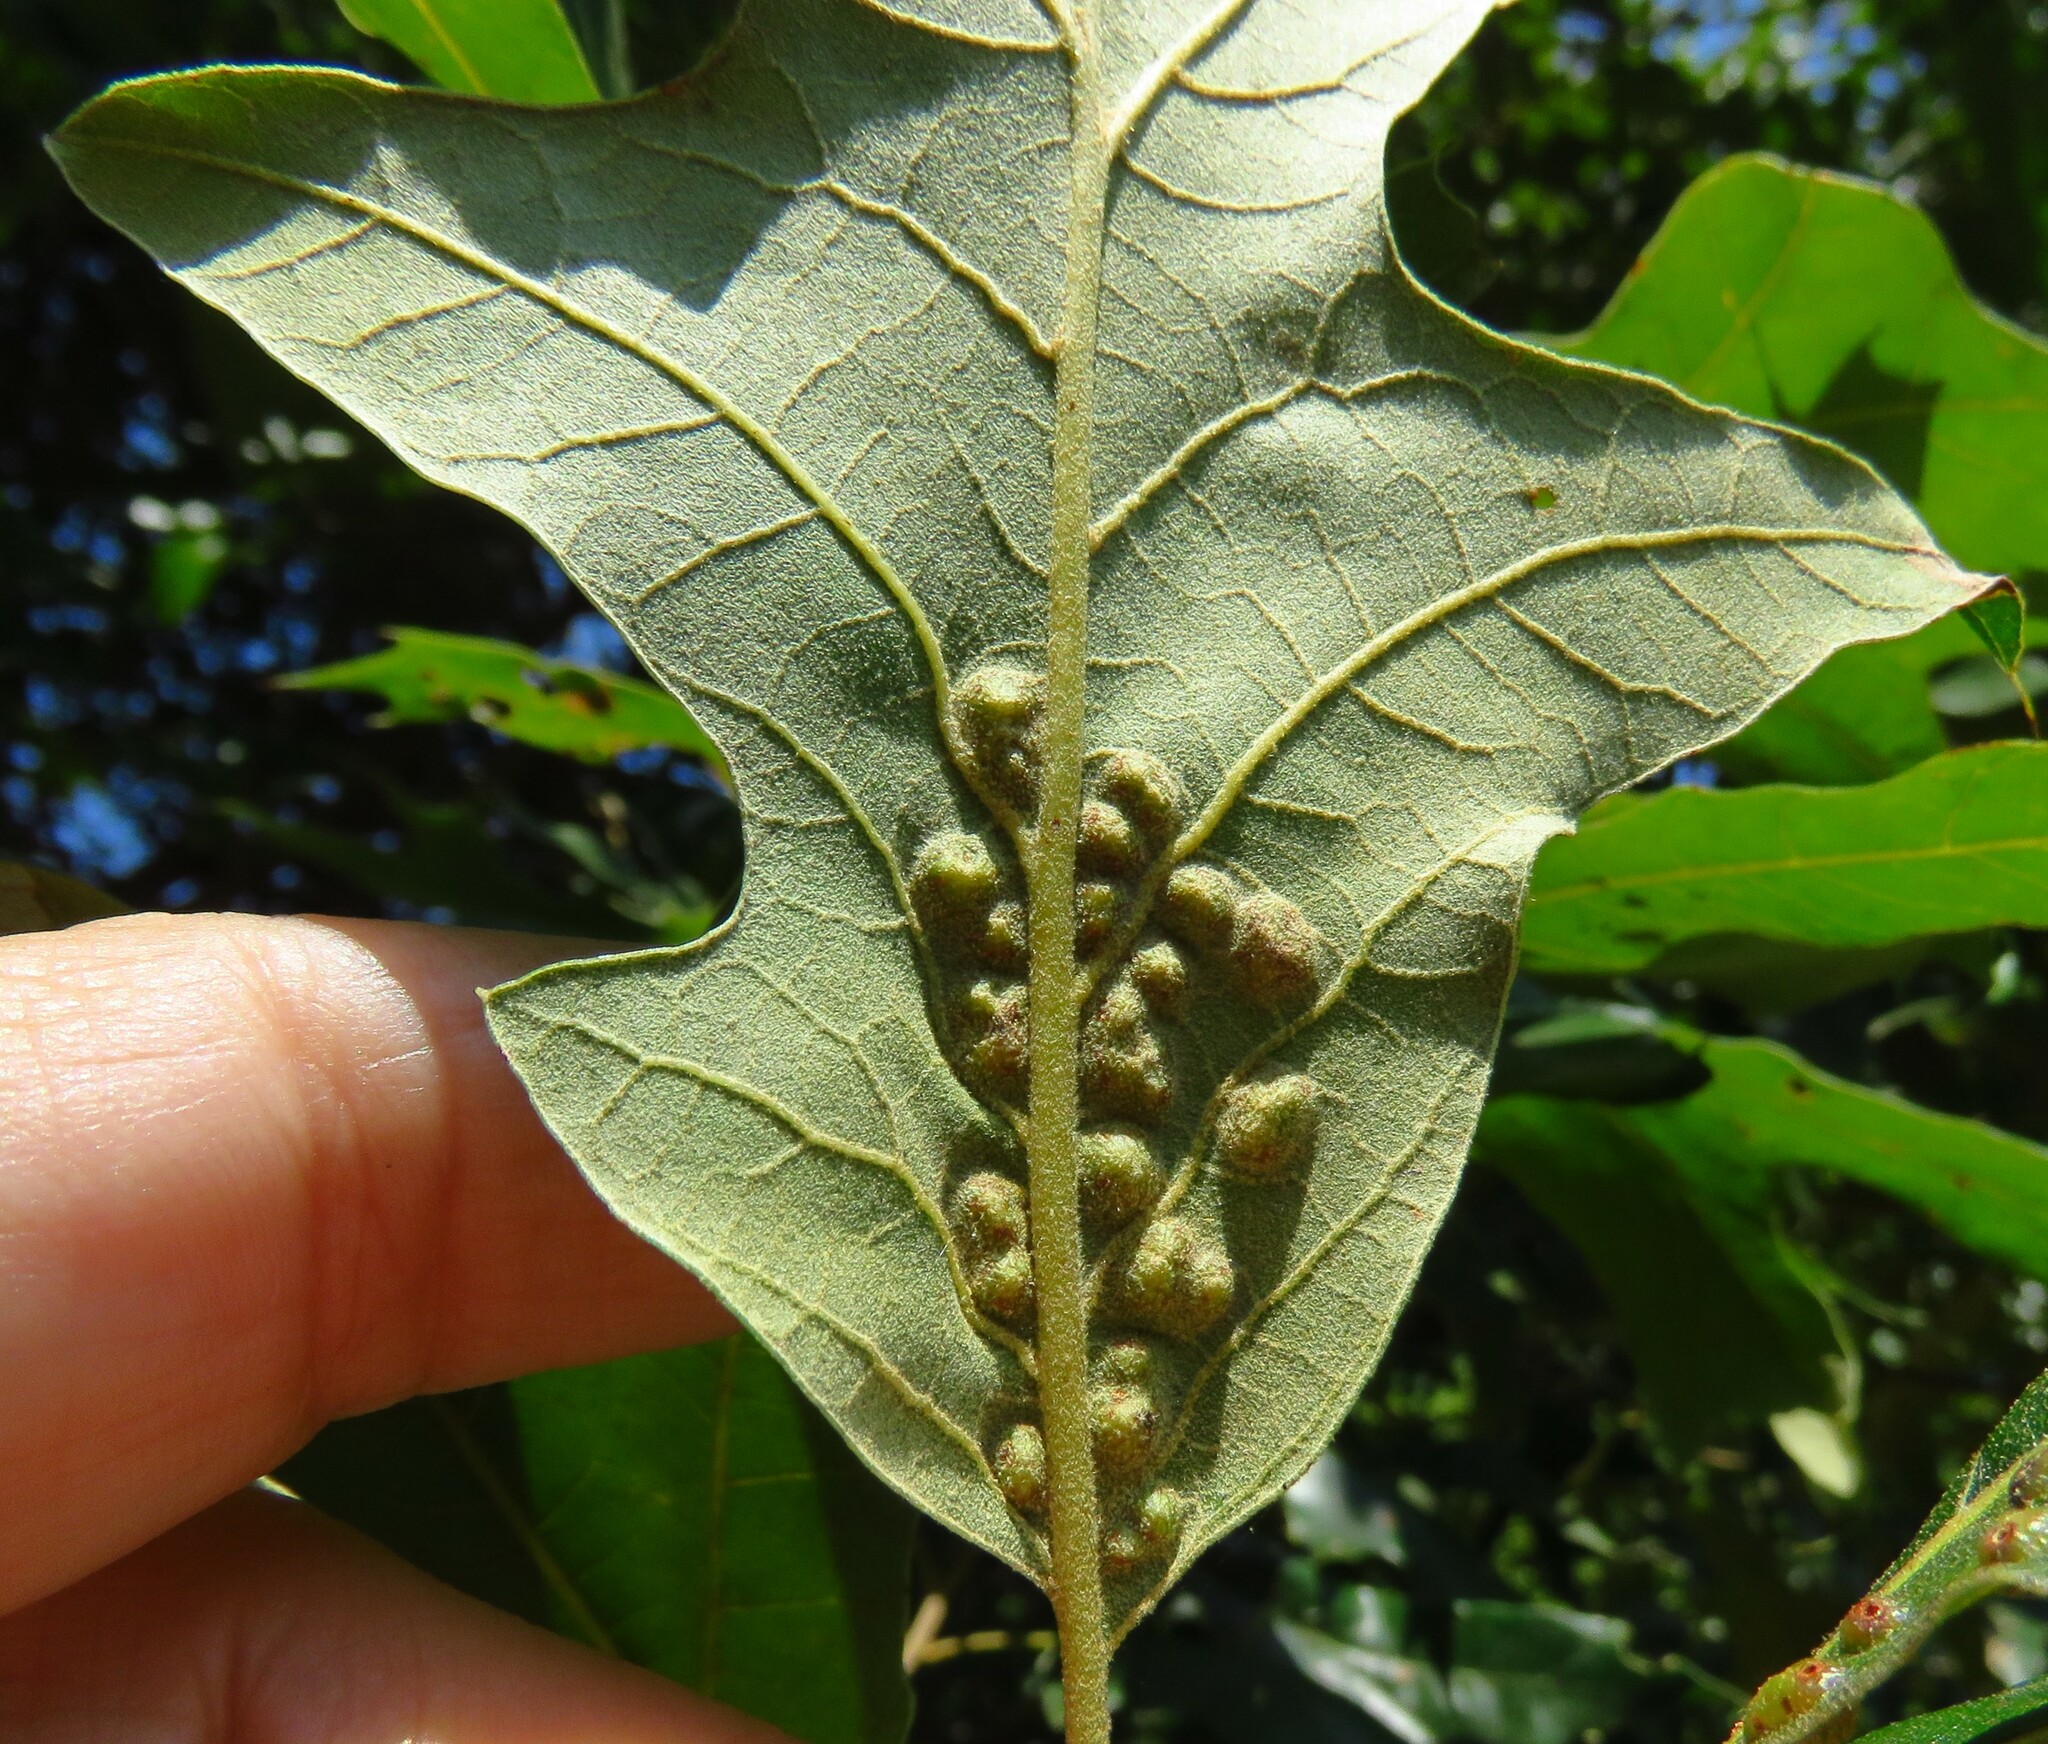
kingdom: Plantae
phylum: Tracheophyta
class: Magnoliopsida
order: Fagales
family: Fagaceae
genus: Quercus
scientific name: Quercus falcata
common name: Southern red oak
